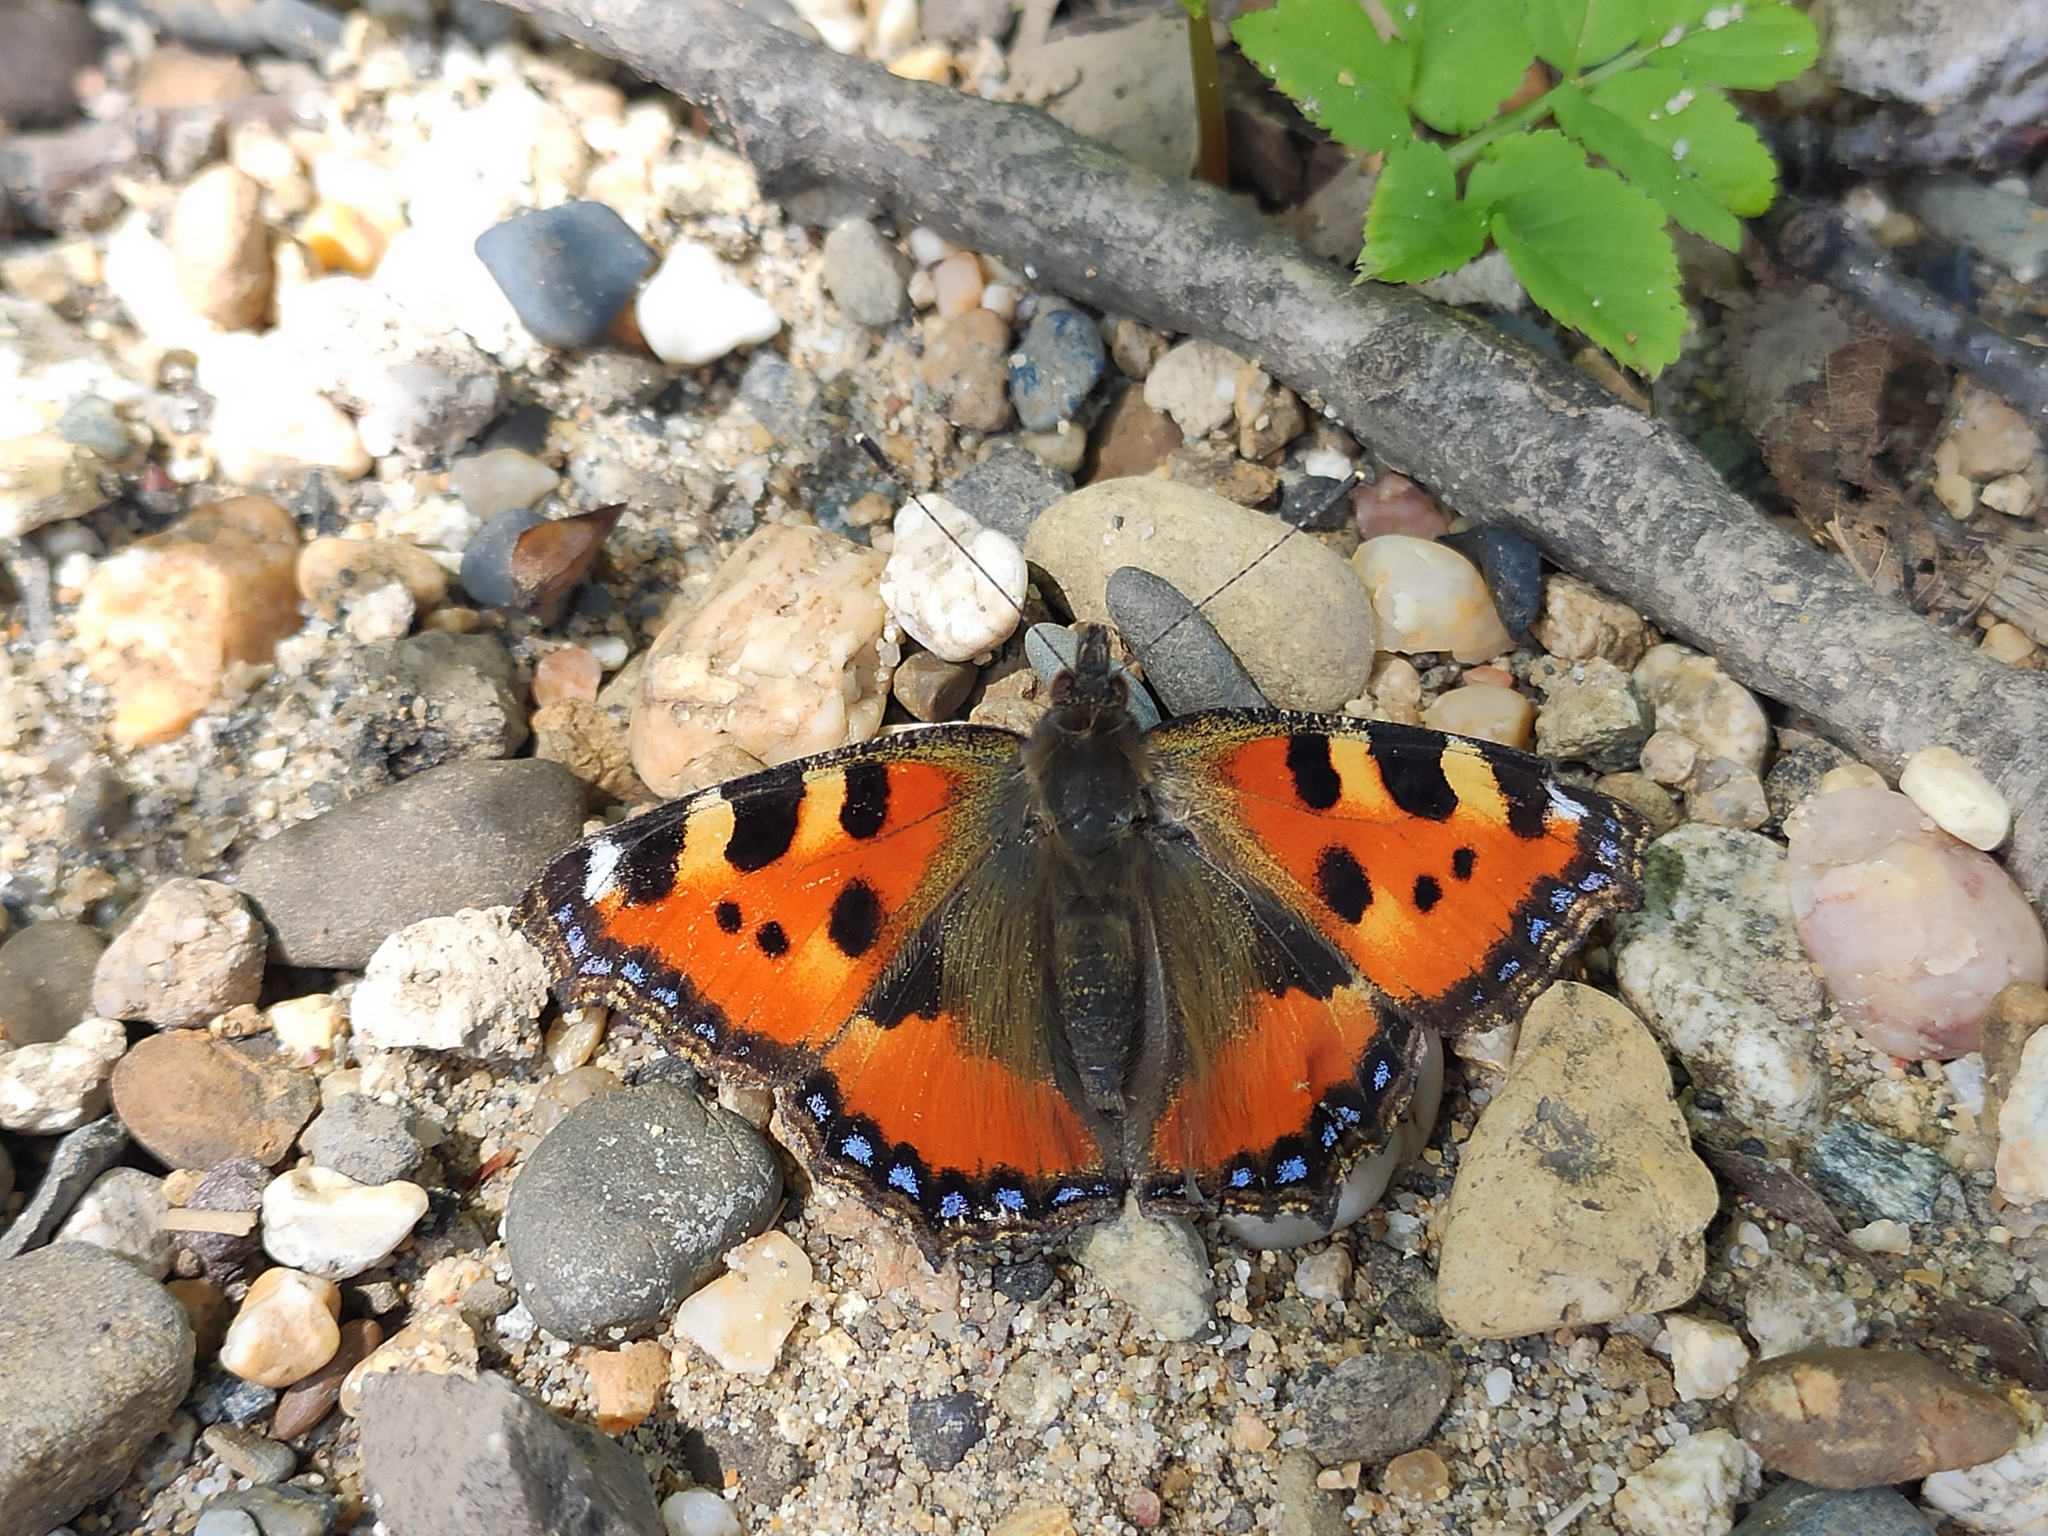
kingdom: Animalia
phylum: Arthropoda
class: Insecta
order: Lepidoptera
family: Nymphalidae
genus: Aglais
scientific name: Aglais urticae
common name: Small tortoiseshell
